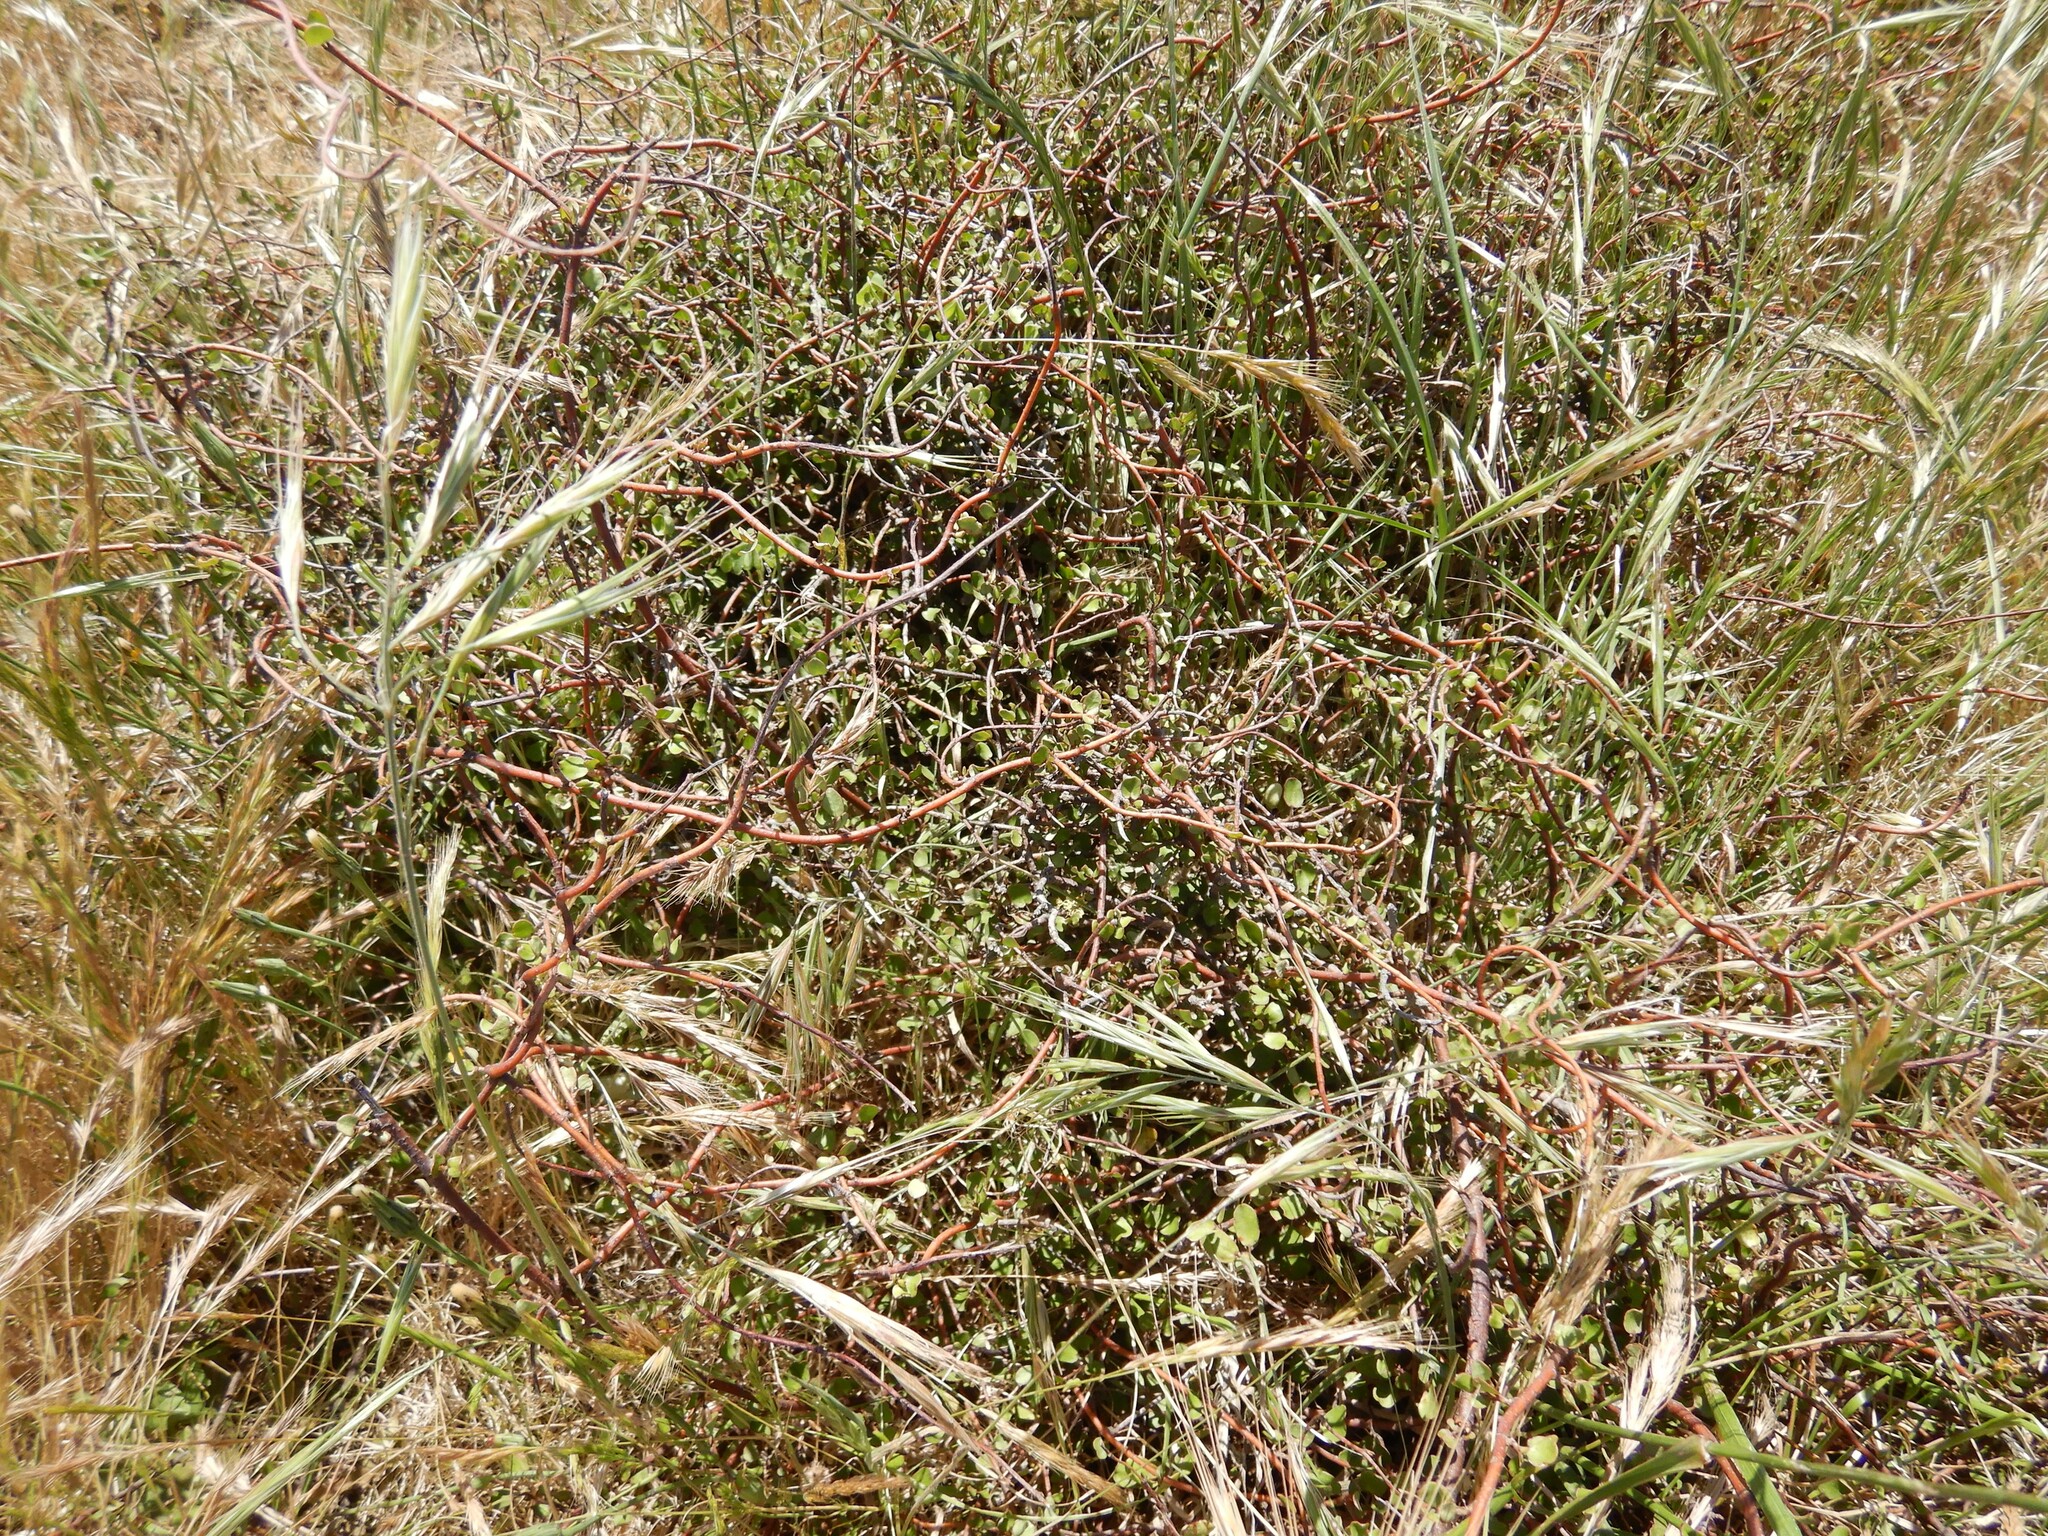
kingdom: Plantae
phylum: Tracheophyta
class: Magnoliopsida
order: Caryophyllales
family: Polygonaceae
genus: Muehlenbeckia
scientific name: Muehlenbeckia complexa
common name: Wireplant
